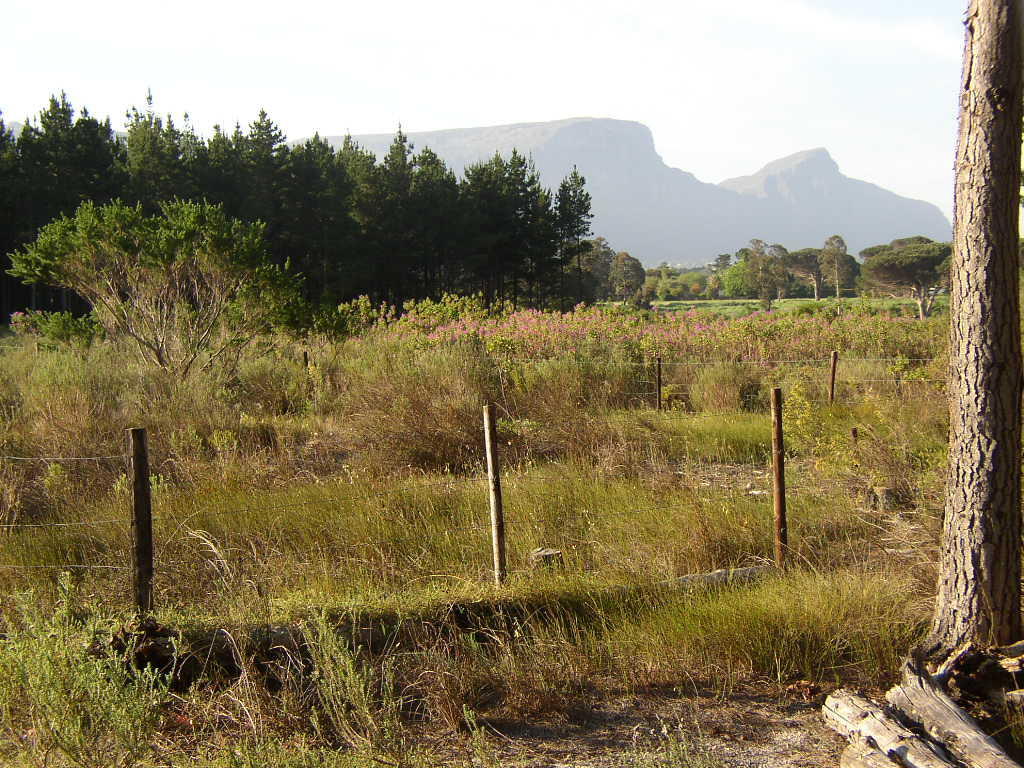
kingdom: Plantae
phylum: Tracheophyta
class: Liliopsida
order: Poales
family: Restionaceae
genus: Willdenowia
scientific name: Willdenowia sulcata
